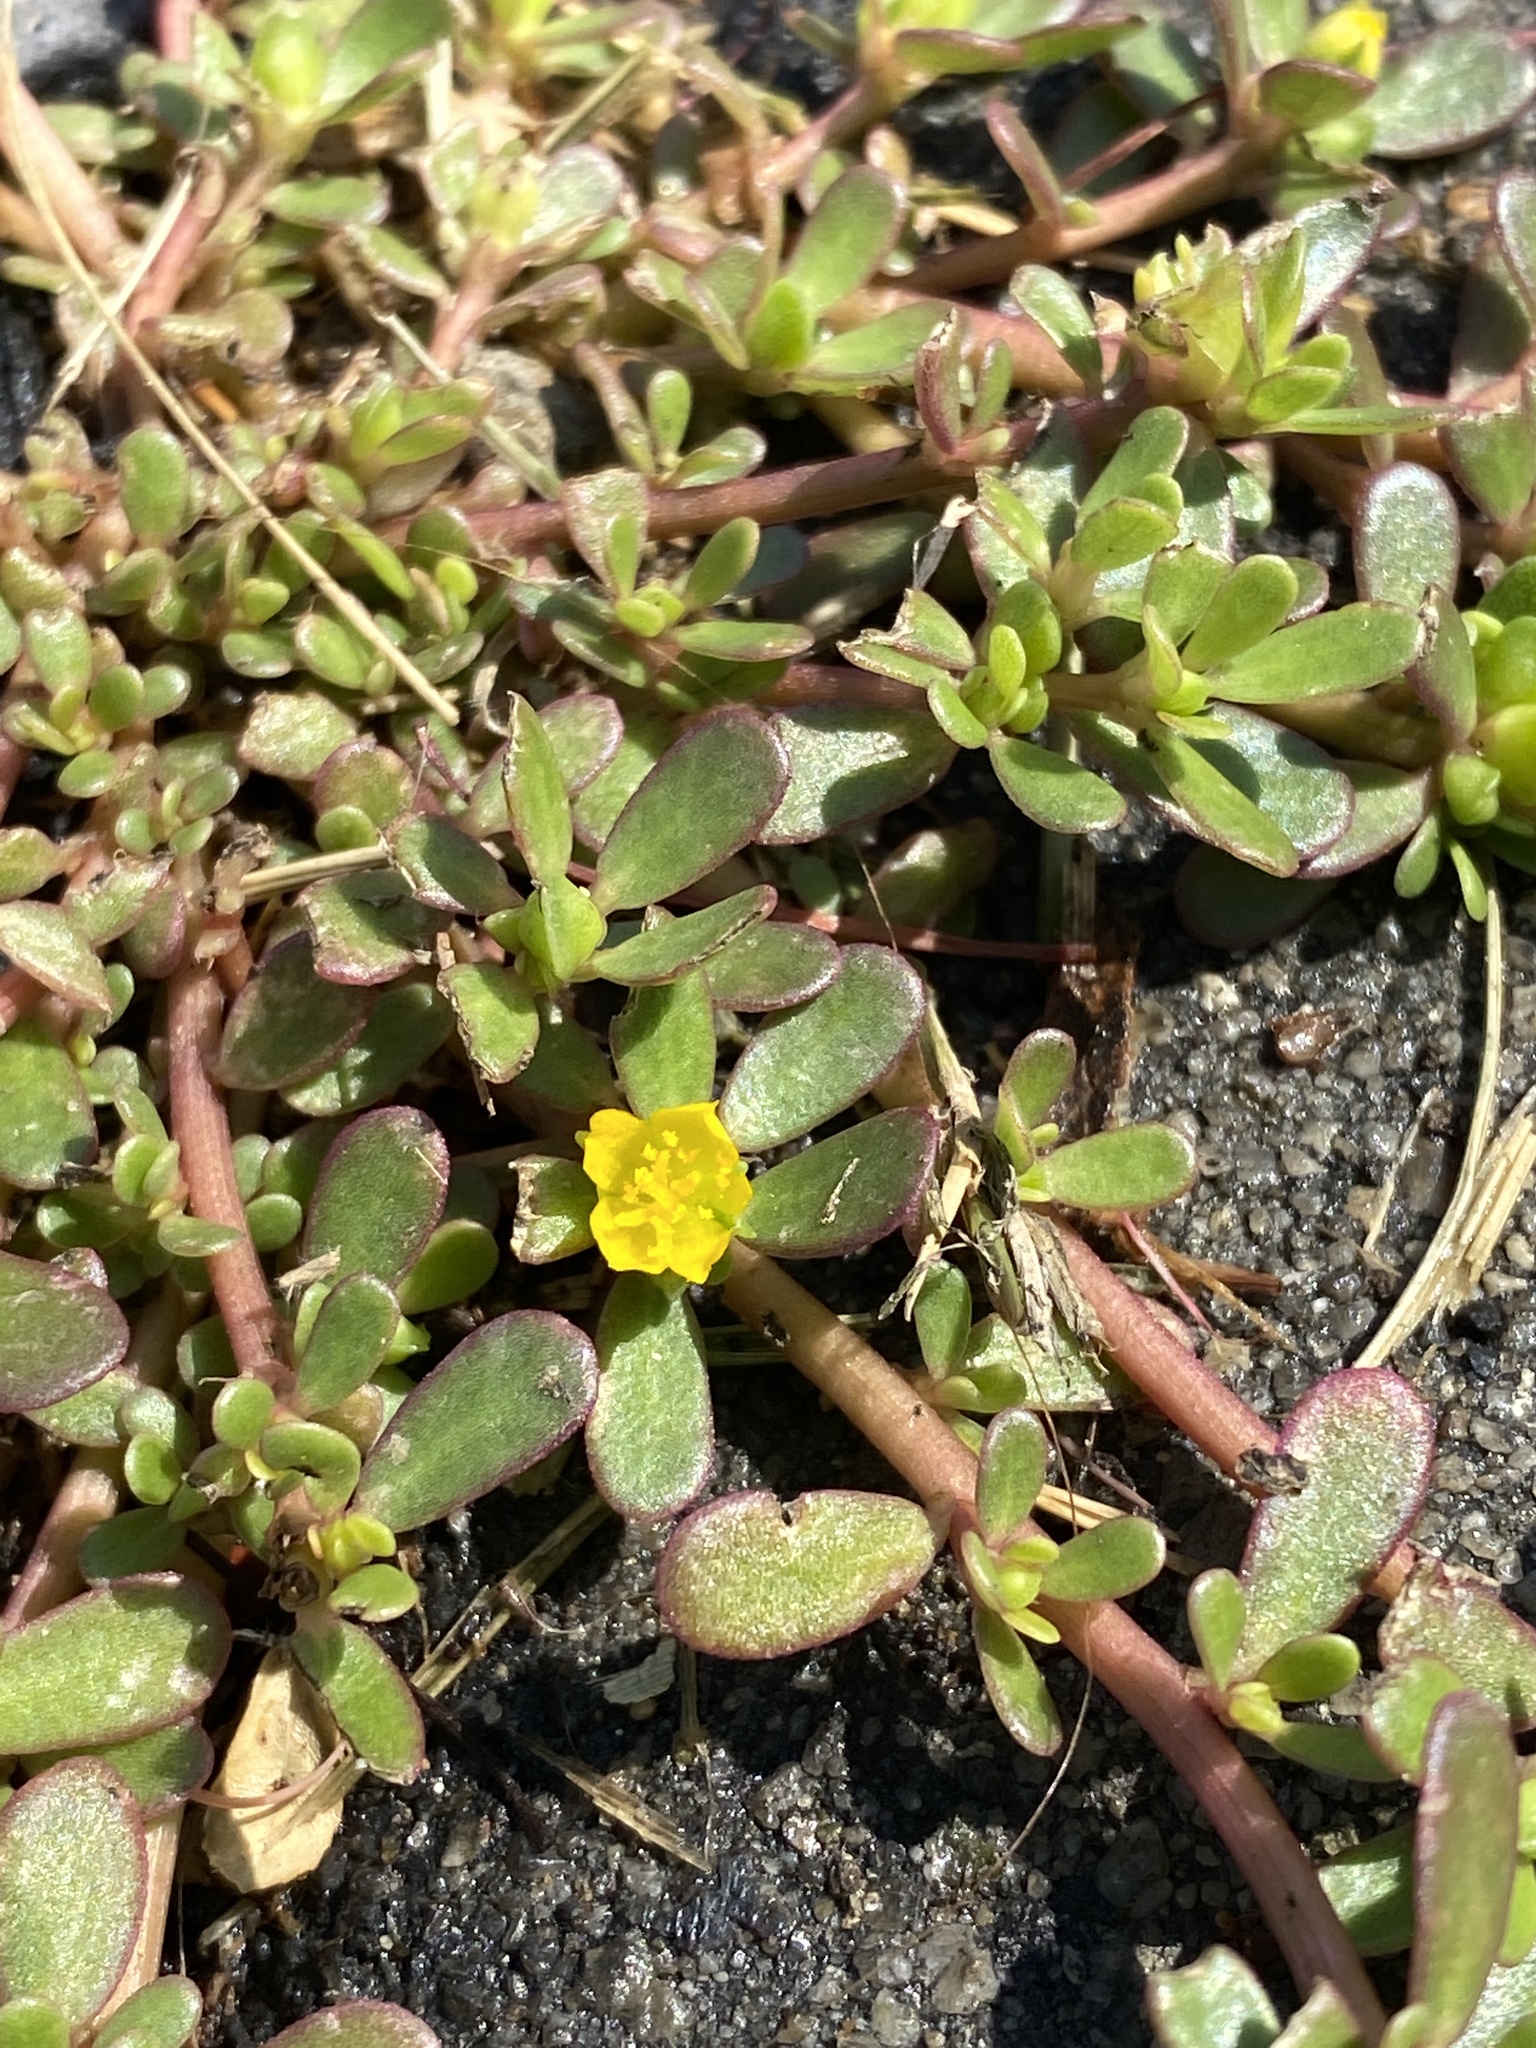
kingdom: Plantae
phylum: Tracheophyta
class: Magnoliopsida
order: Caryophyllales
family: Portulacaceae
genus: Portulaca
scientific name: Portulaca oleracea
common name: Common purslane
